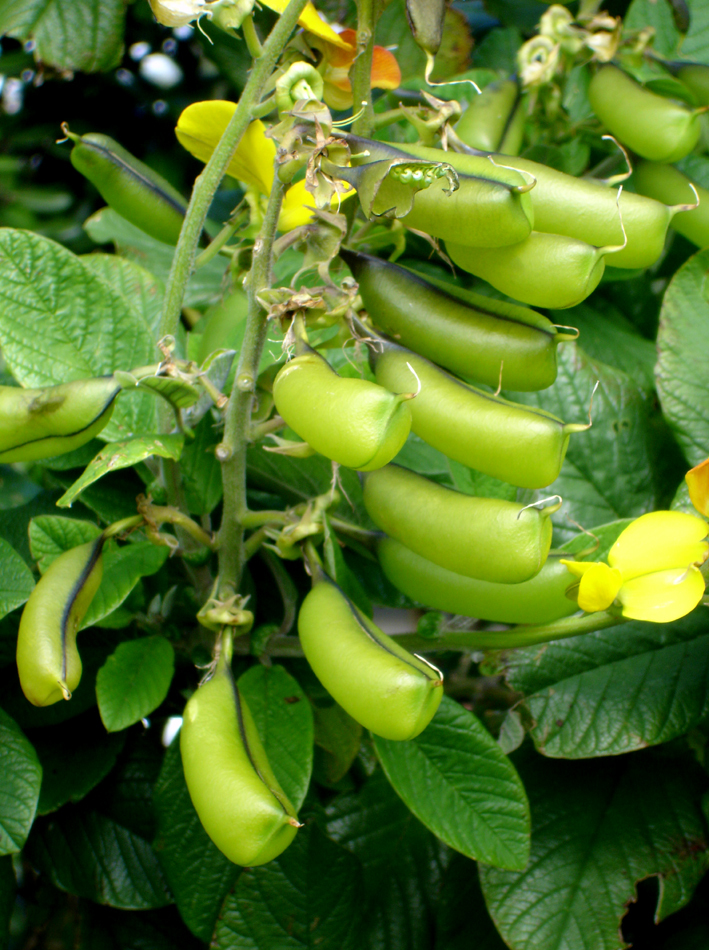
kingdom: Plantae
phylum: Tracheophyta
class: Magnoliopsida
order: Fabales
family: Fabaceae
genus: Crotalaria
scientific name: Crotalaria beddomeana
